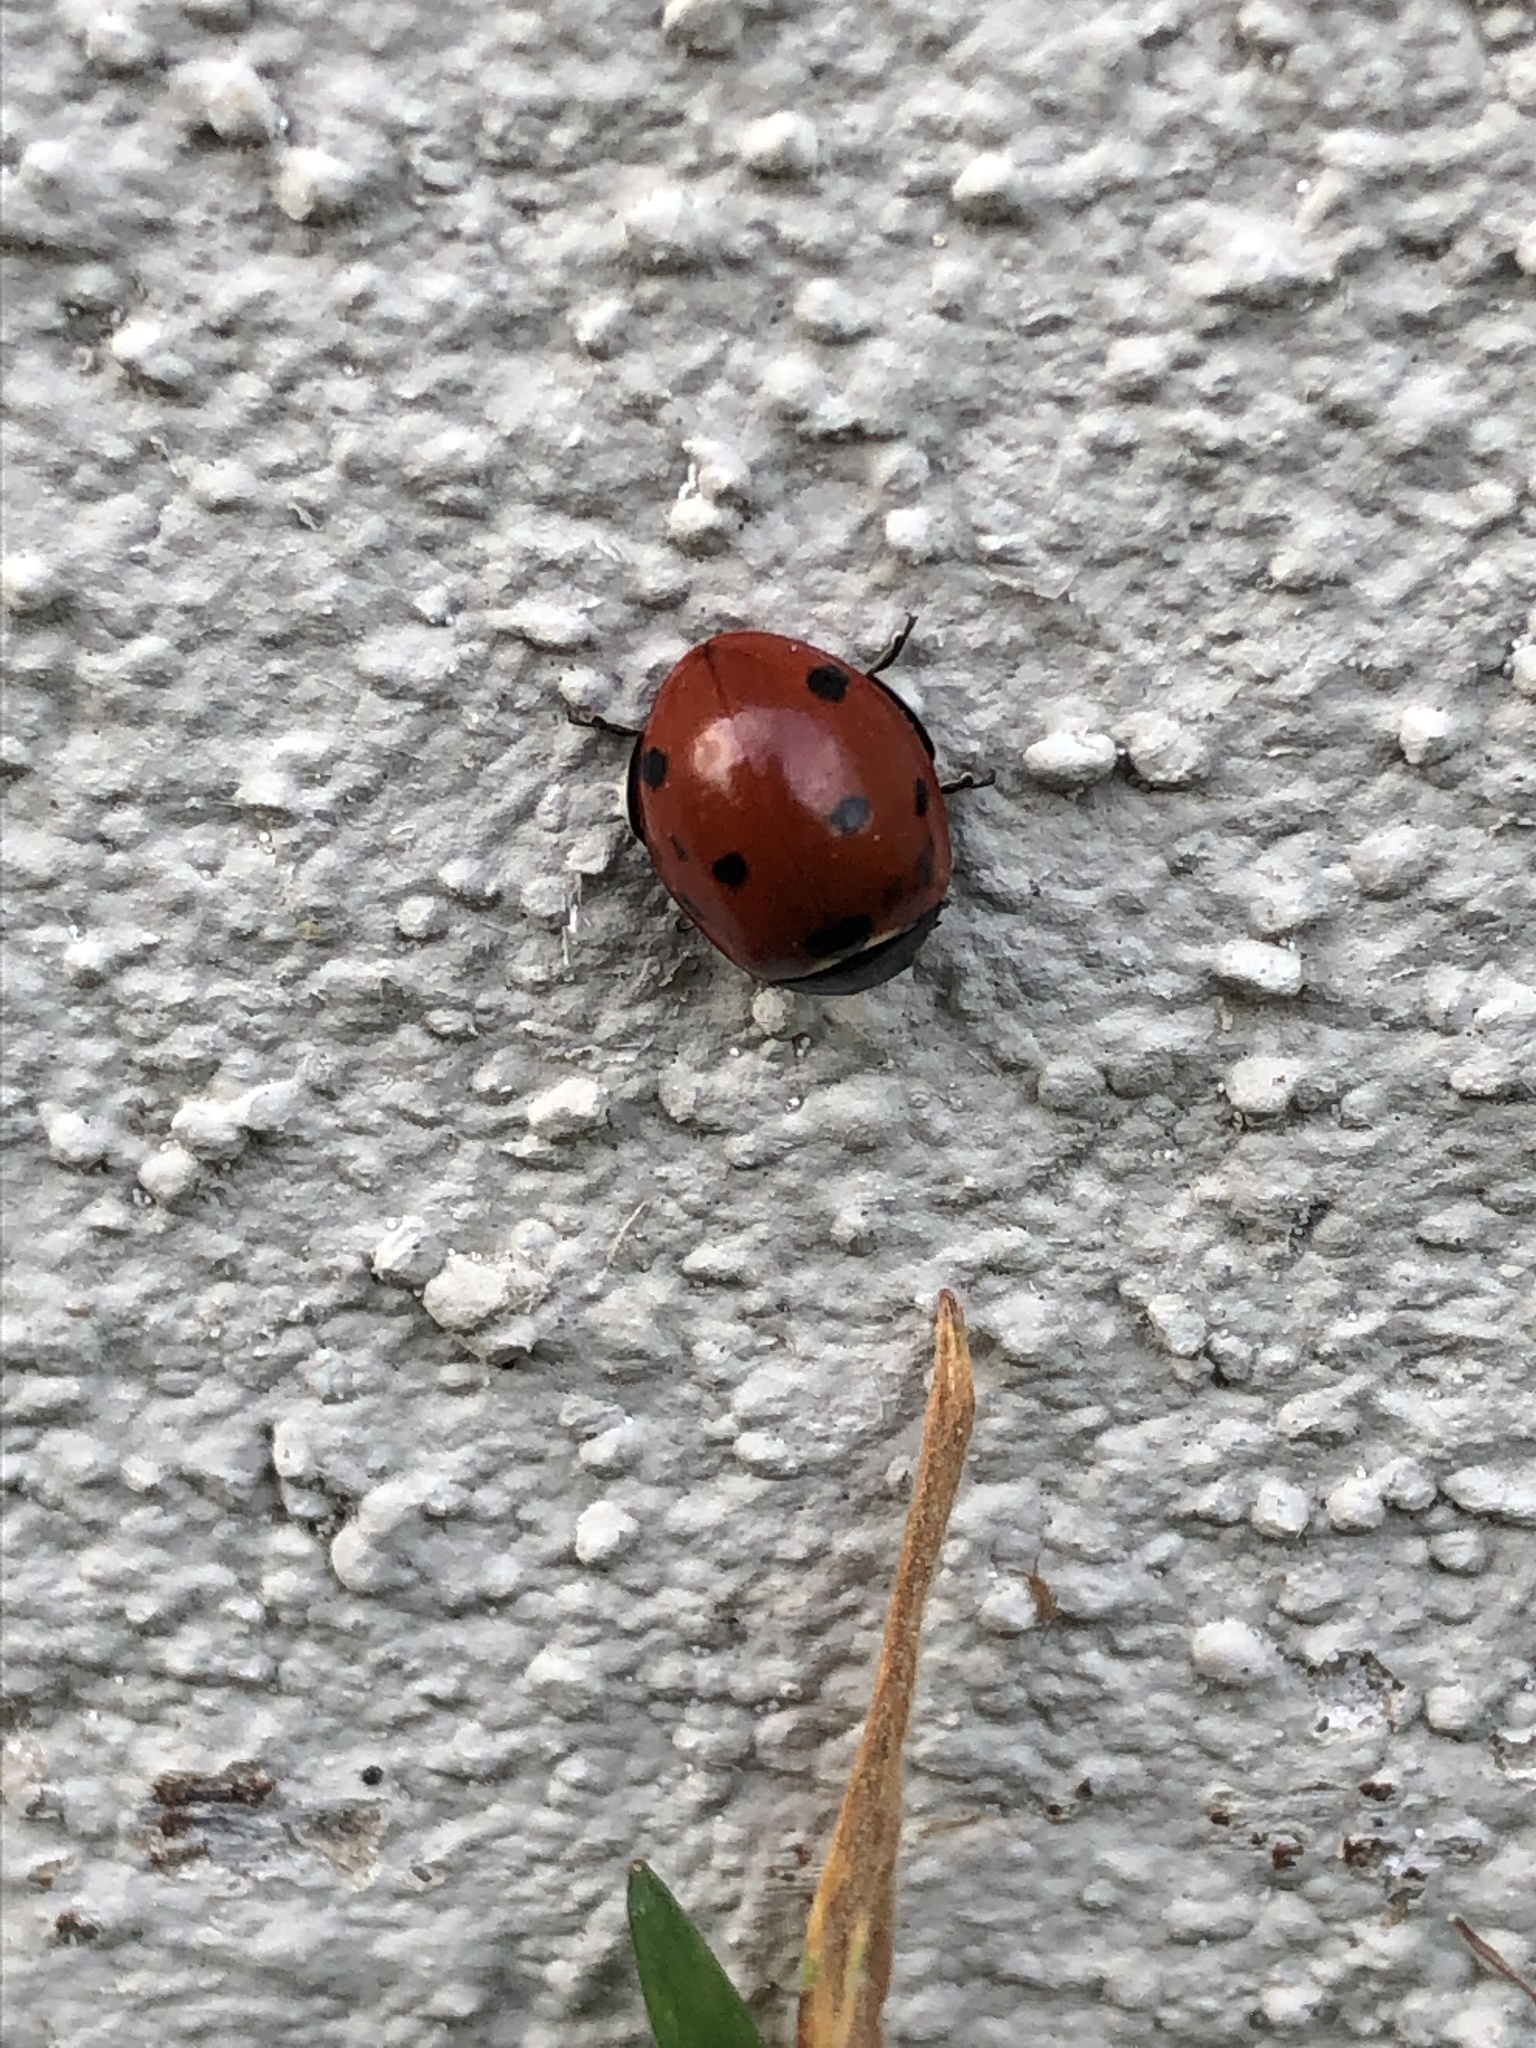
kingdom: Animalia
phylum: Arthropoda
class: Insecta
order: Coleoptera
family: Coccinellidae
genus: Coccinella
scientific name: Coccinella septempunctata
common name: Sevenspotted lady beetle
